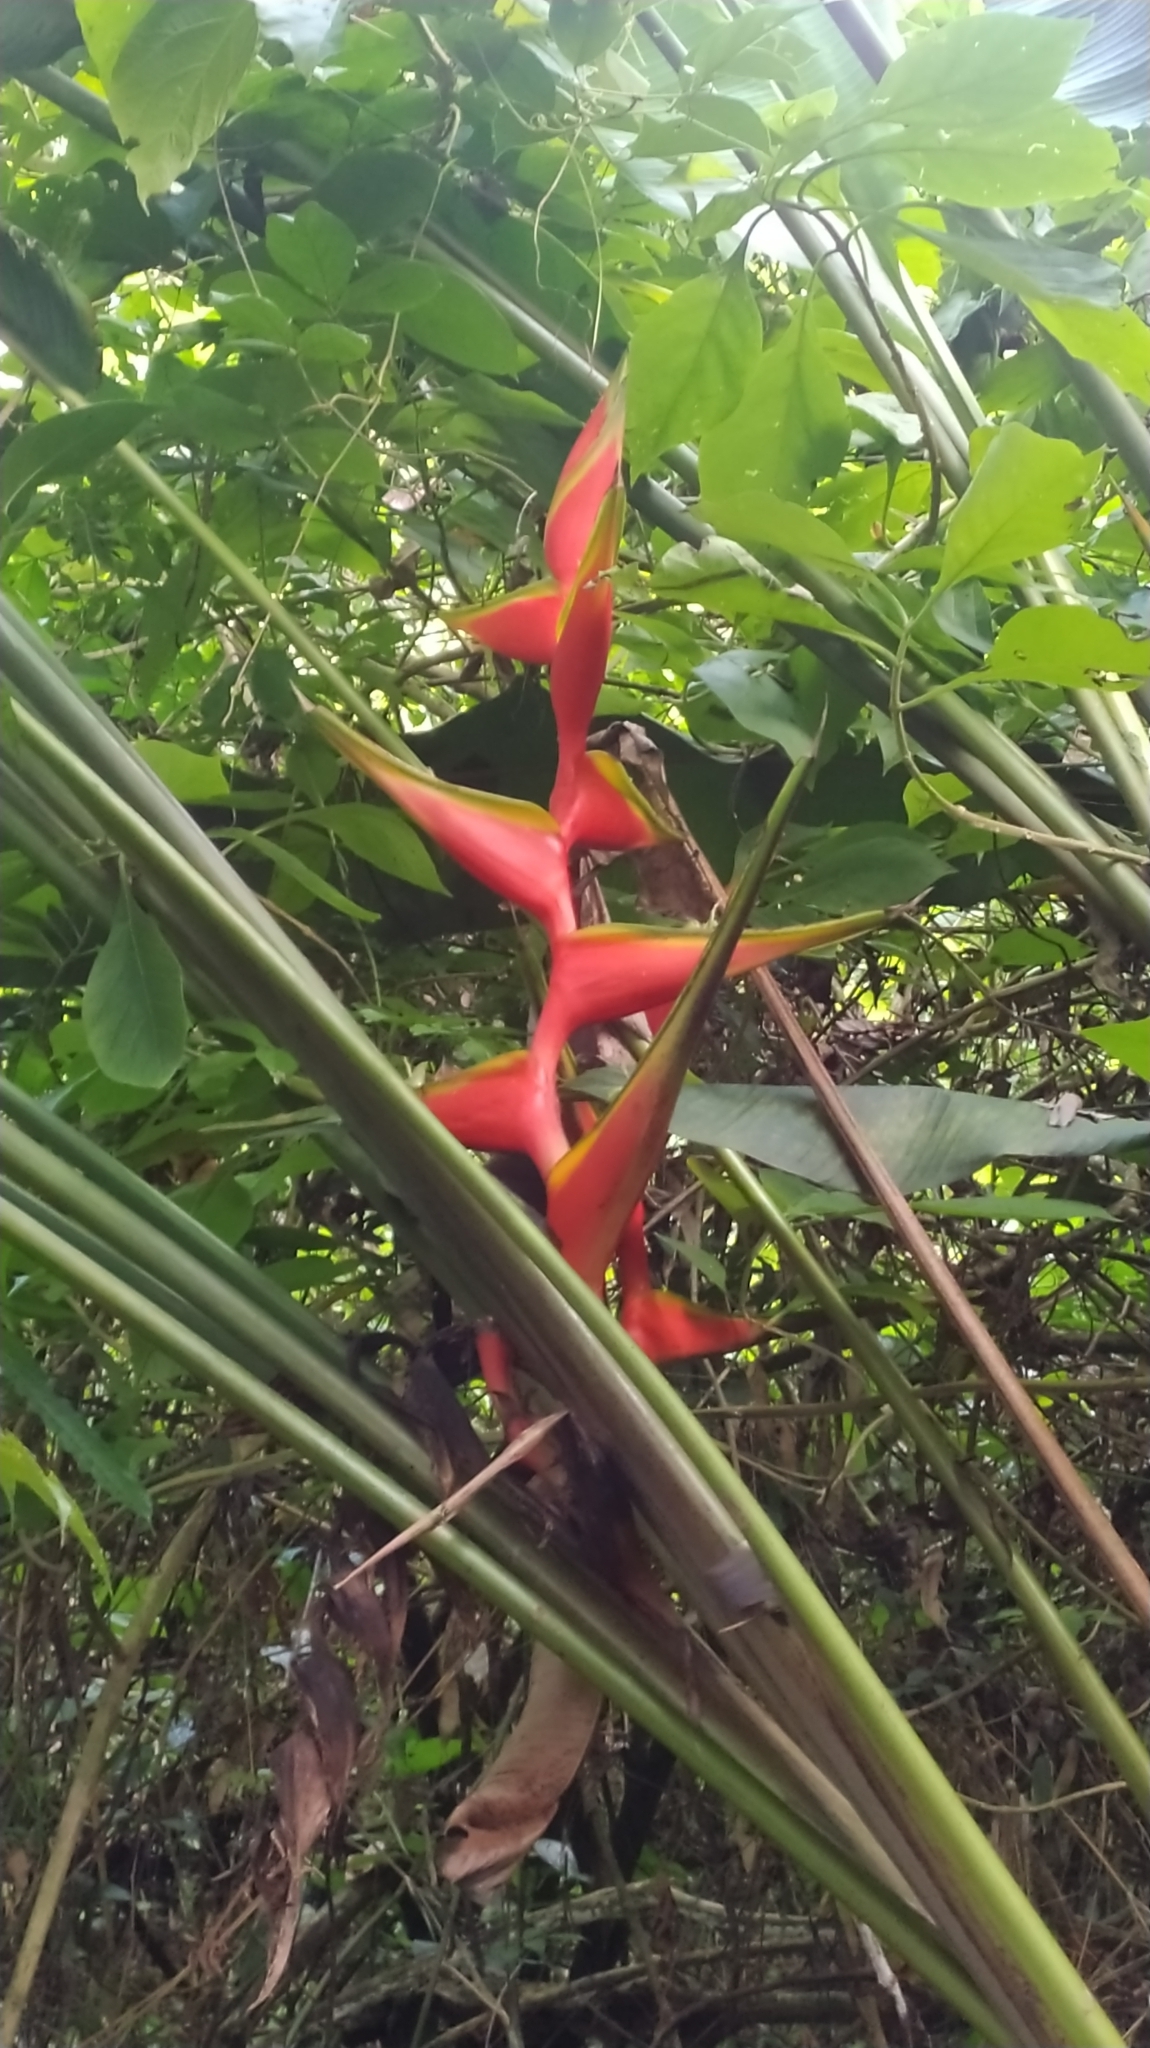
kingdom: Plantae
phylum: Tracheophyta
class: Liliopsida
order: Zingiberales
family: Heliconiaceae
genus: Heliconia
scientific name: Heliconia bihai
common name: Macaw flower
